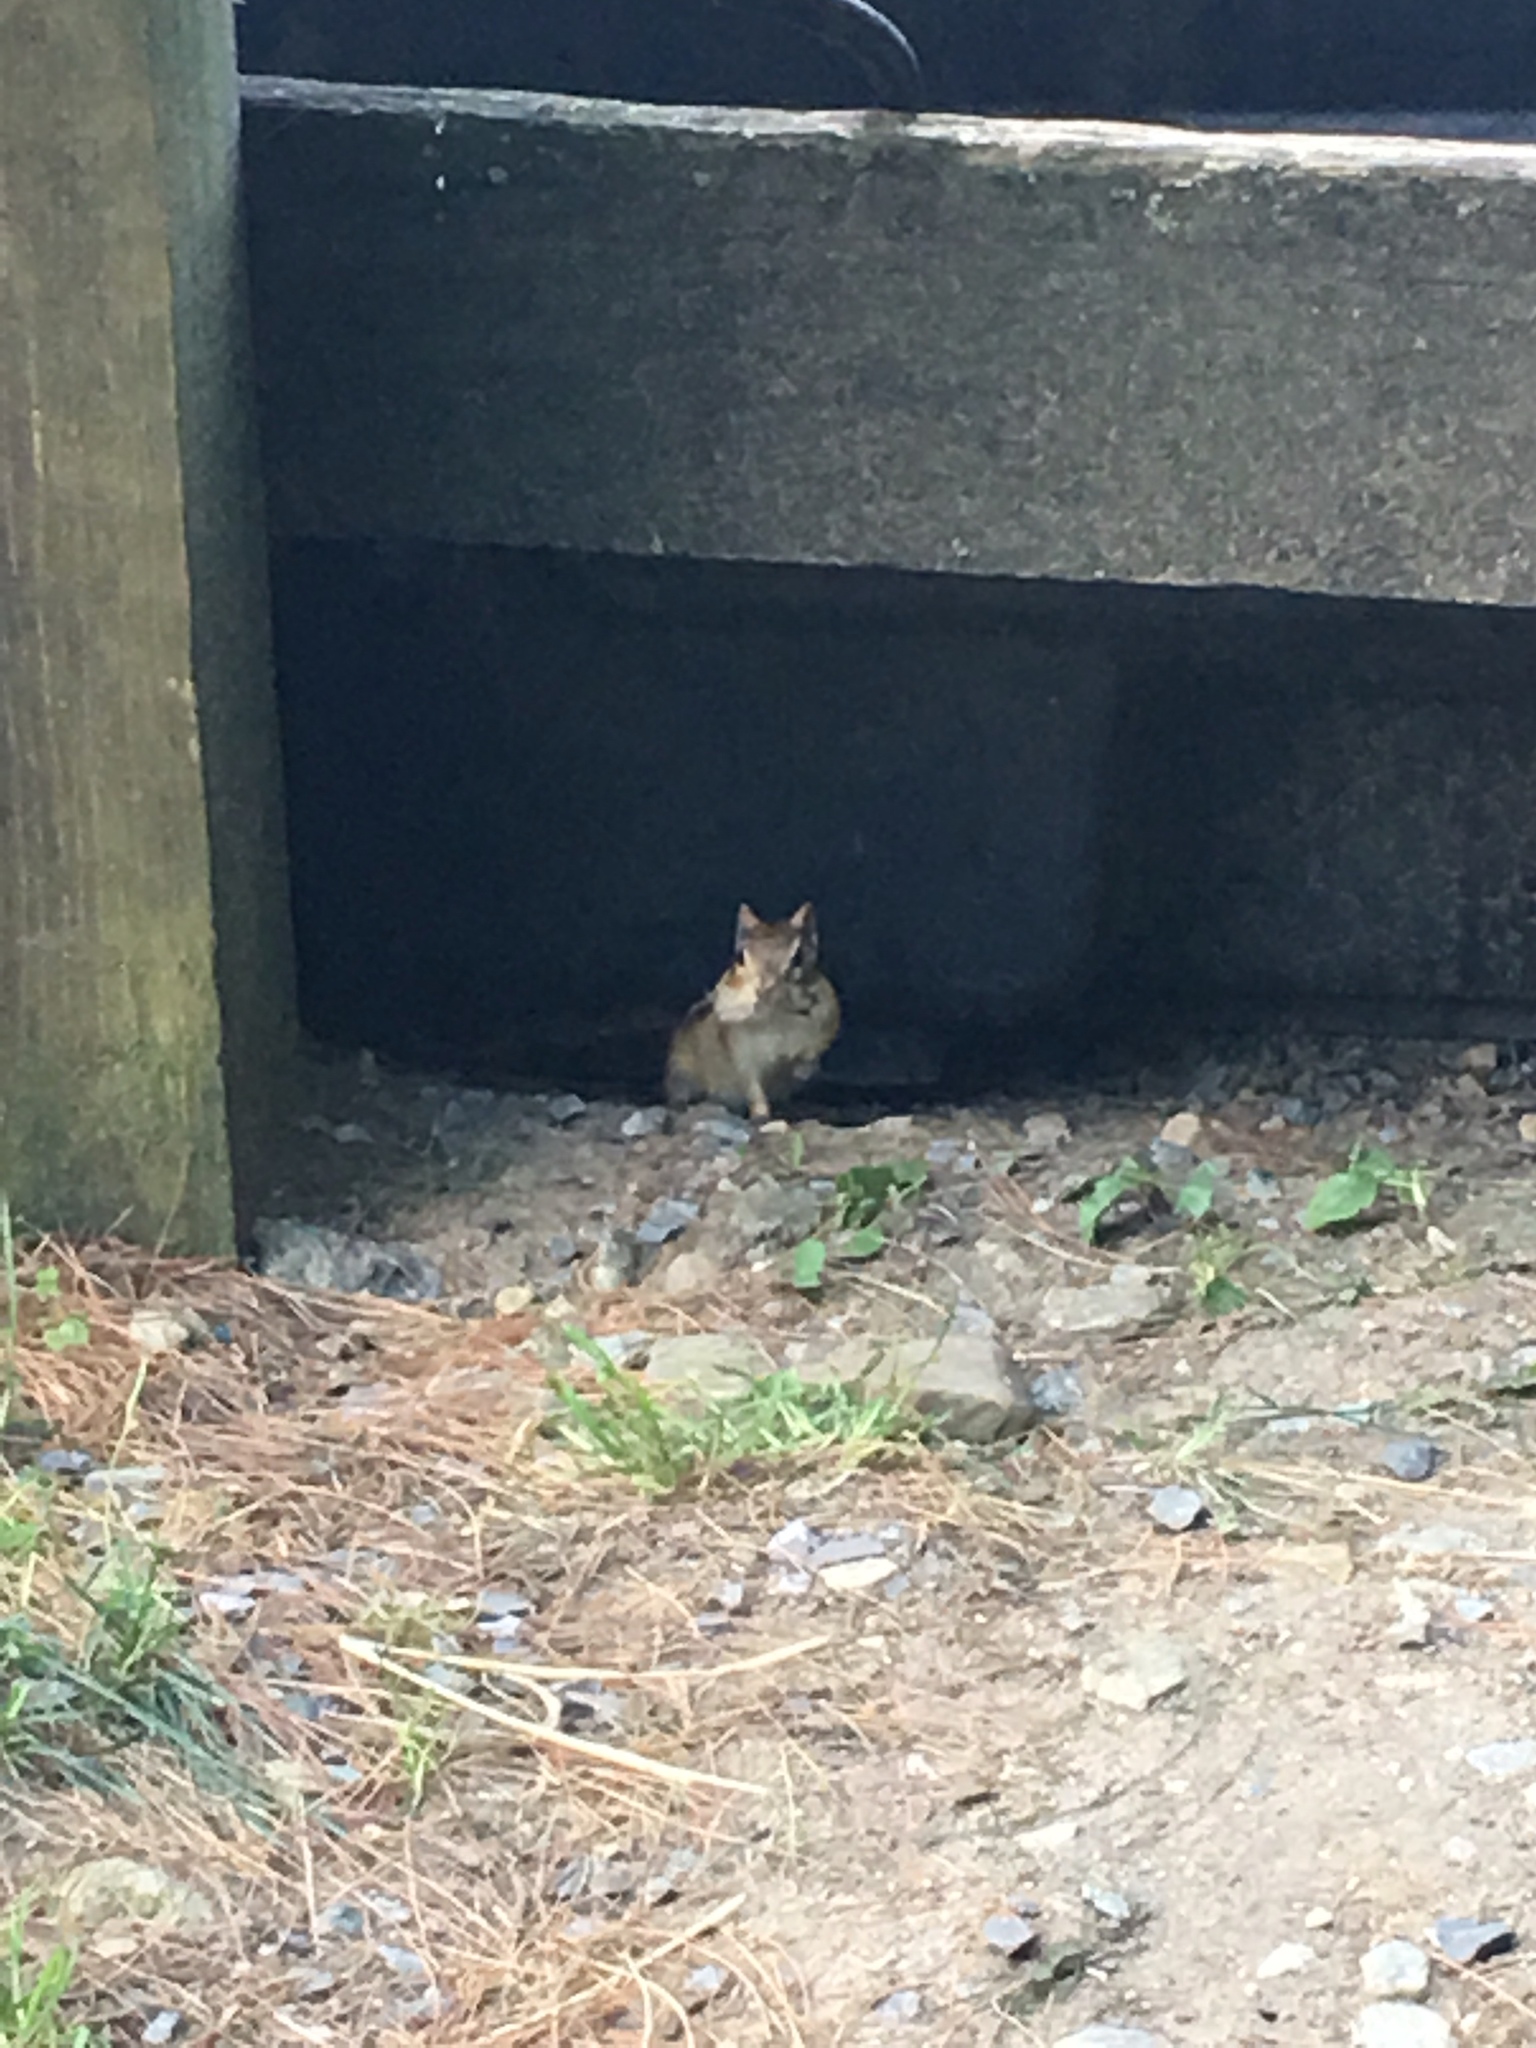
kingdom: Animalia
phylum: Chordata
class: Mammalia
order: Rodentia
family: Sciuridae
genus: Tamias
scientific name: Tamias striatus
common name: Eastern chipmunk
